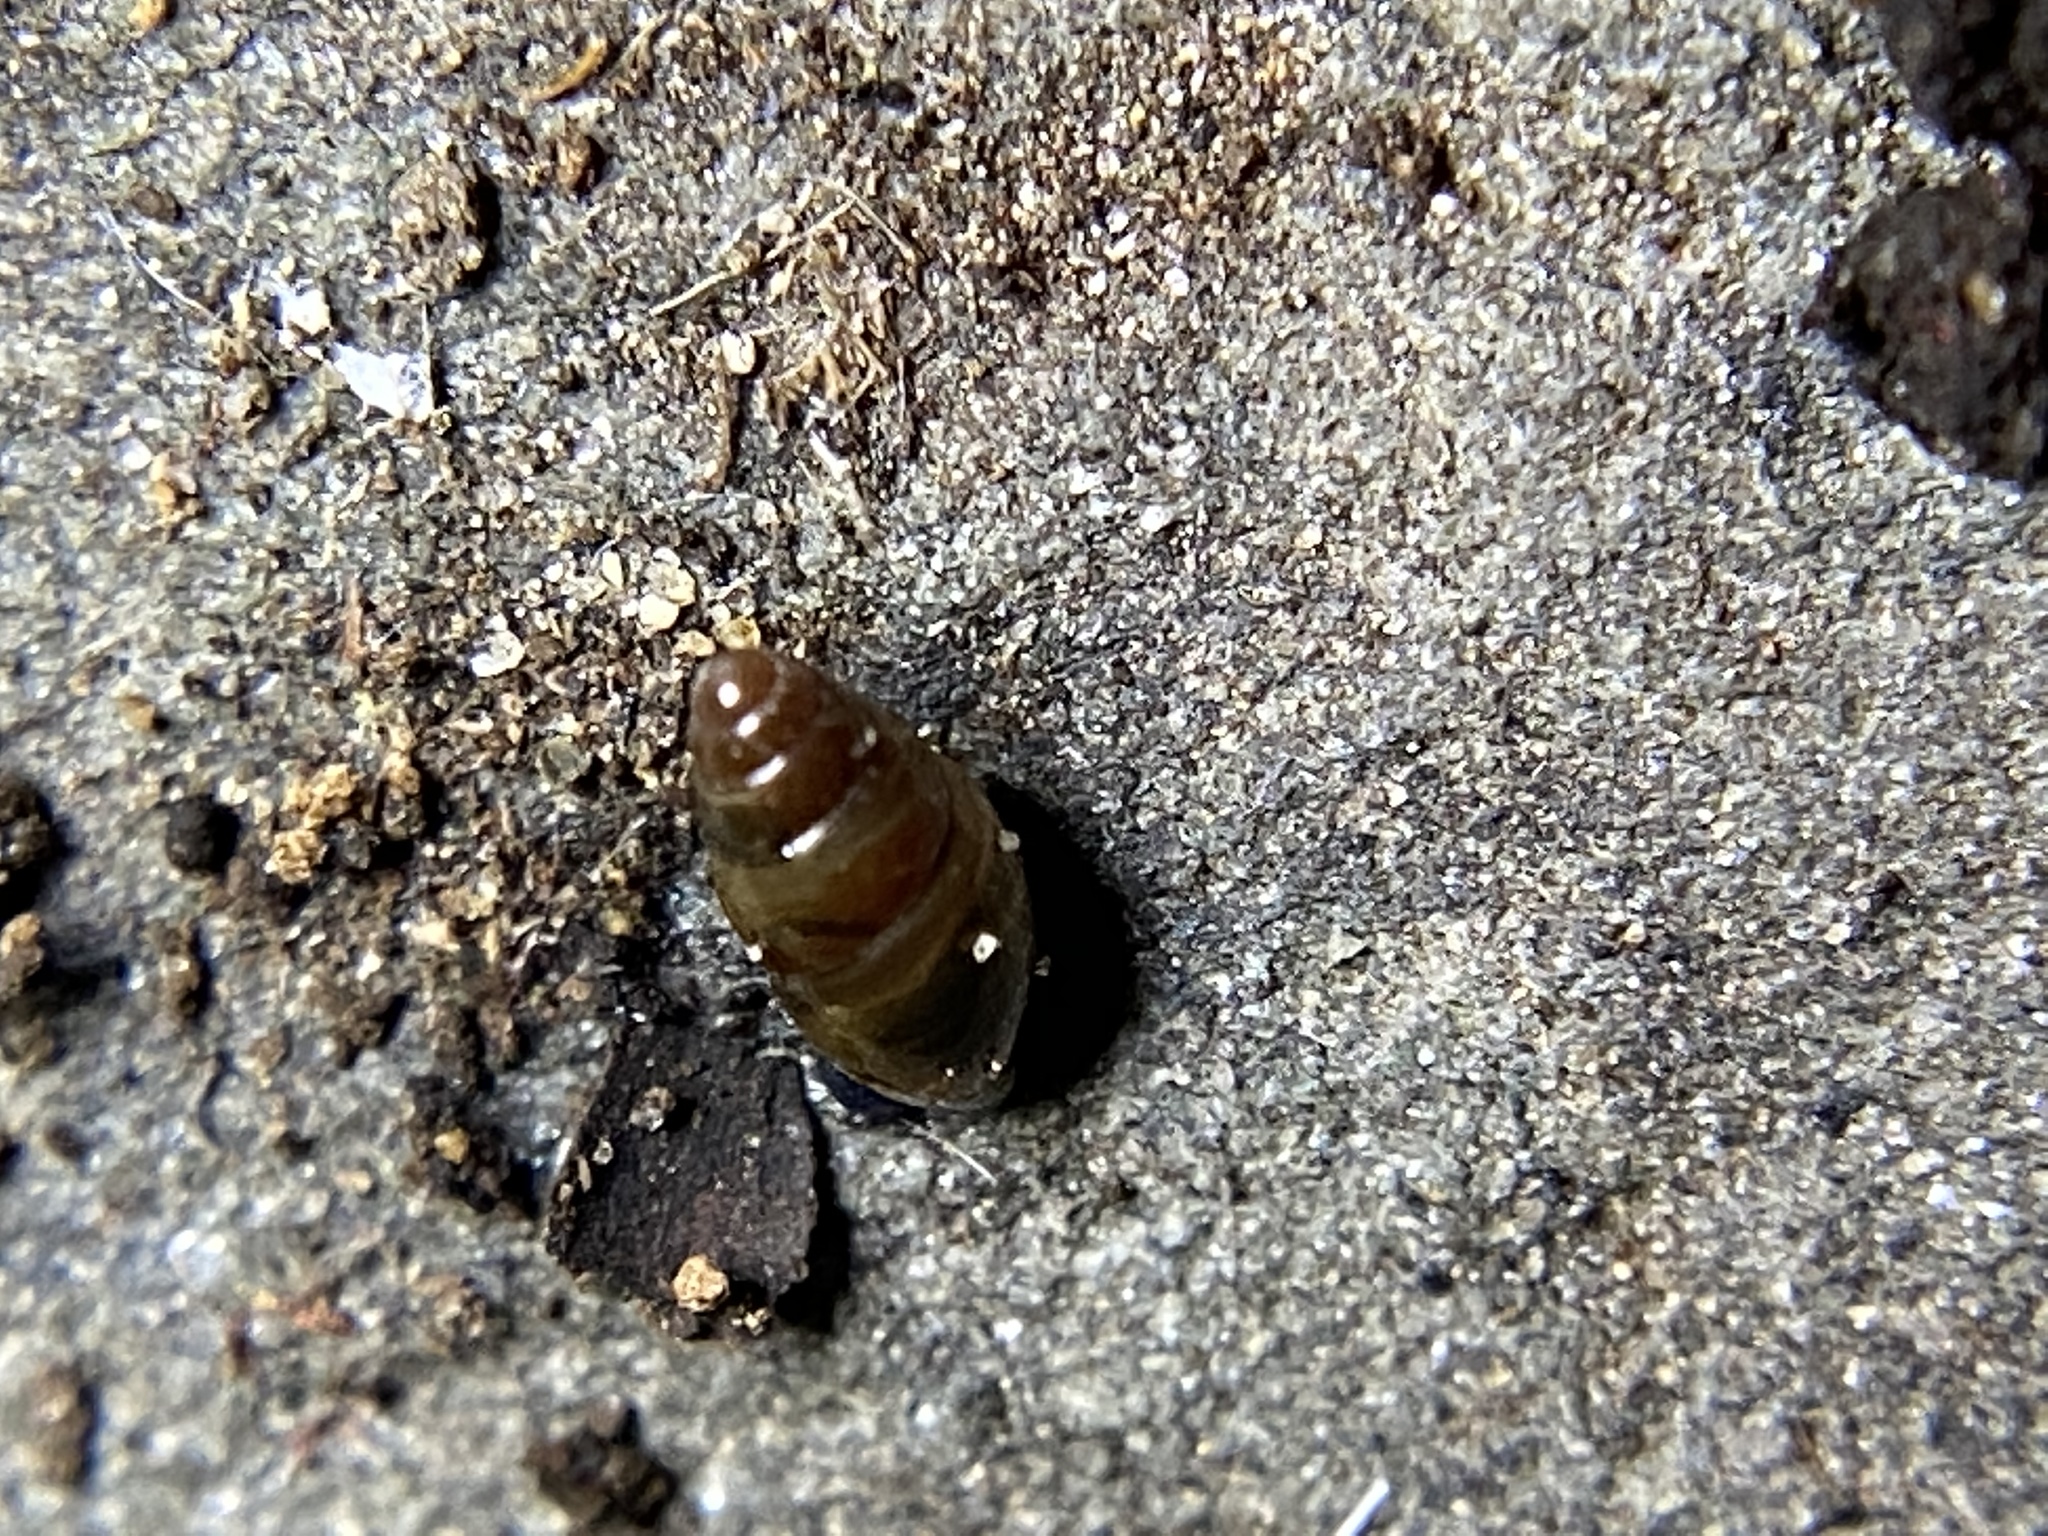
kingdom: Animalia
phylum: Mollusca
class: Gastropoda
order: Stylommatophora
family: Cochlicopidae
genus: Cochlicopa
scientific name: Cochlicopa lubrica
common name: Glossy pillar snail
